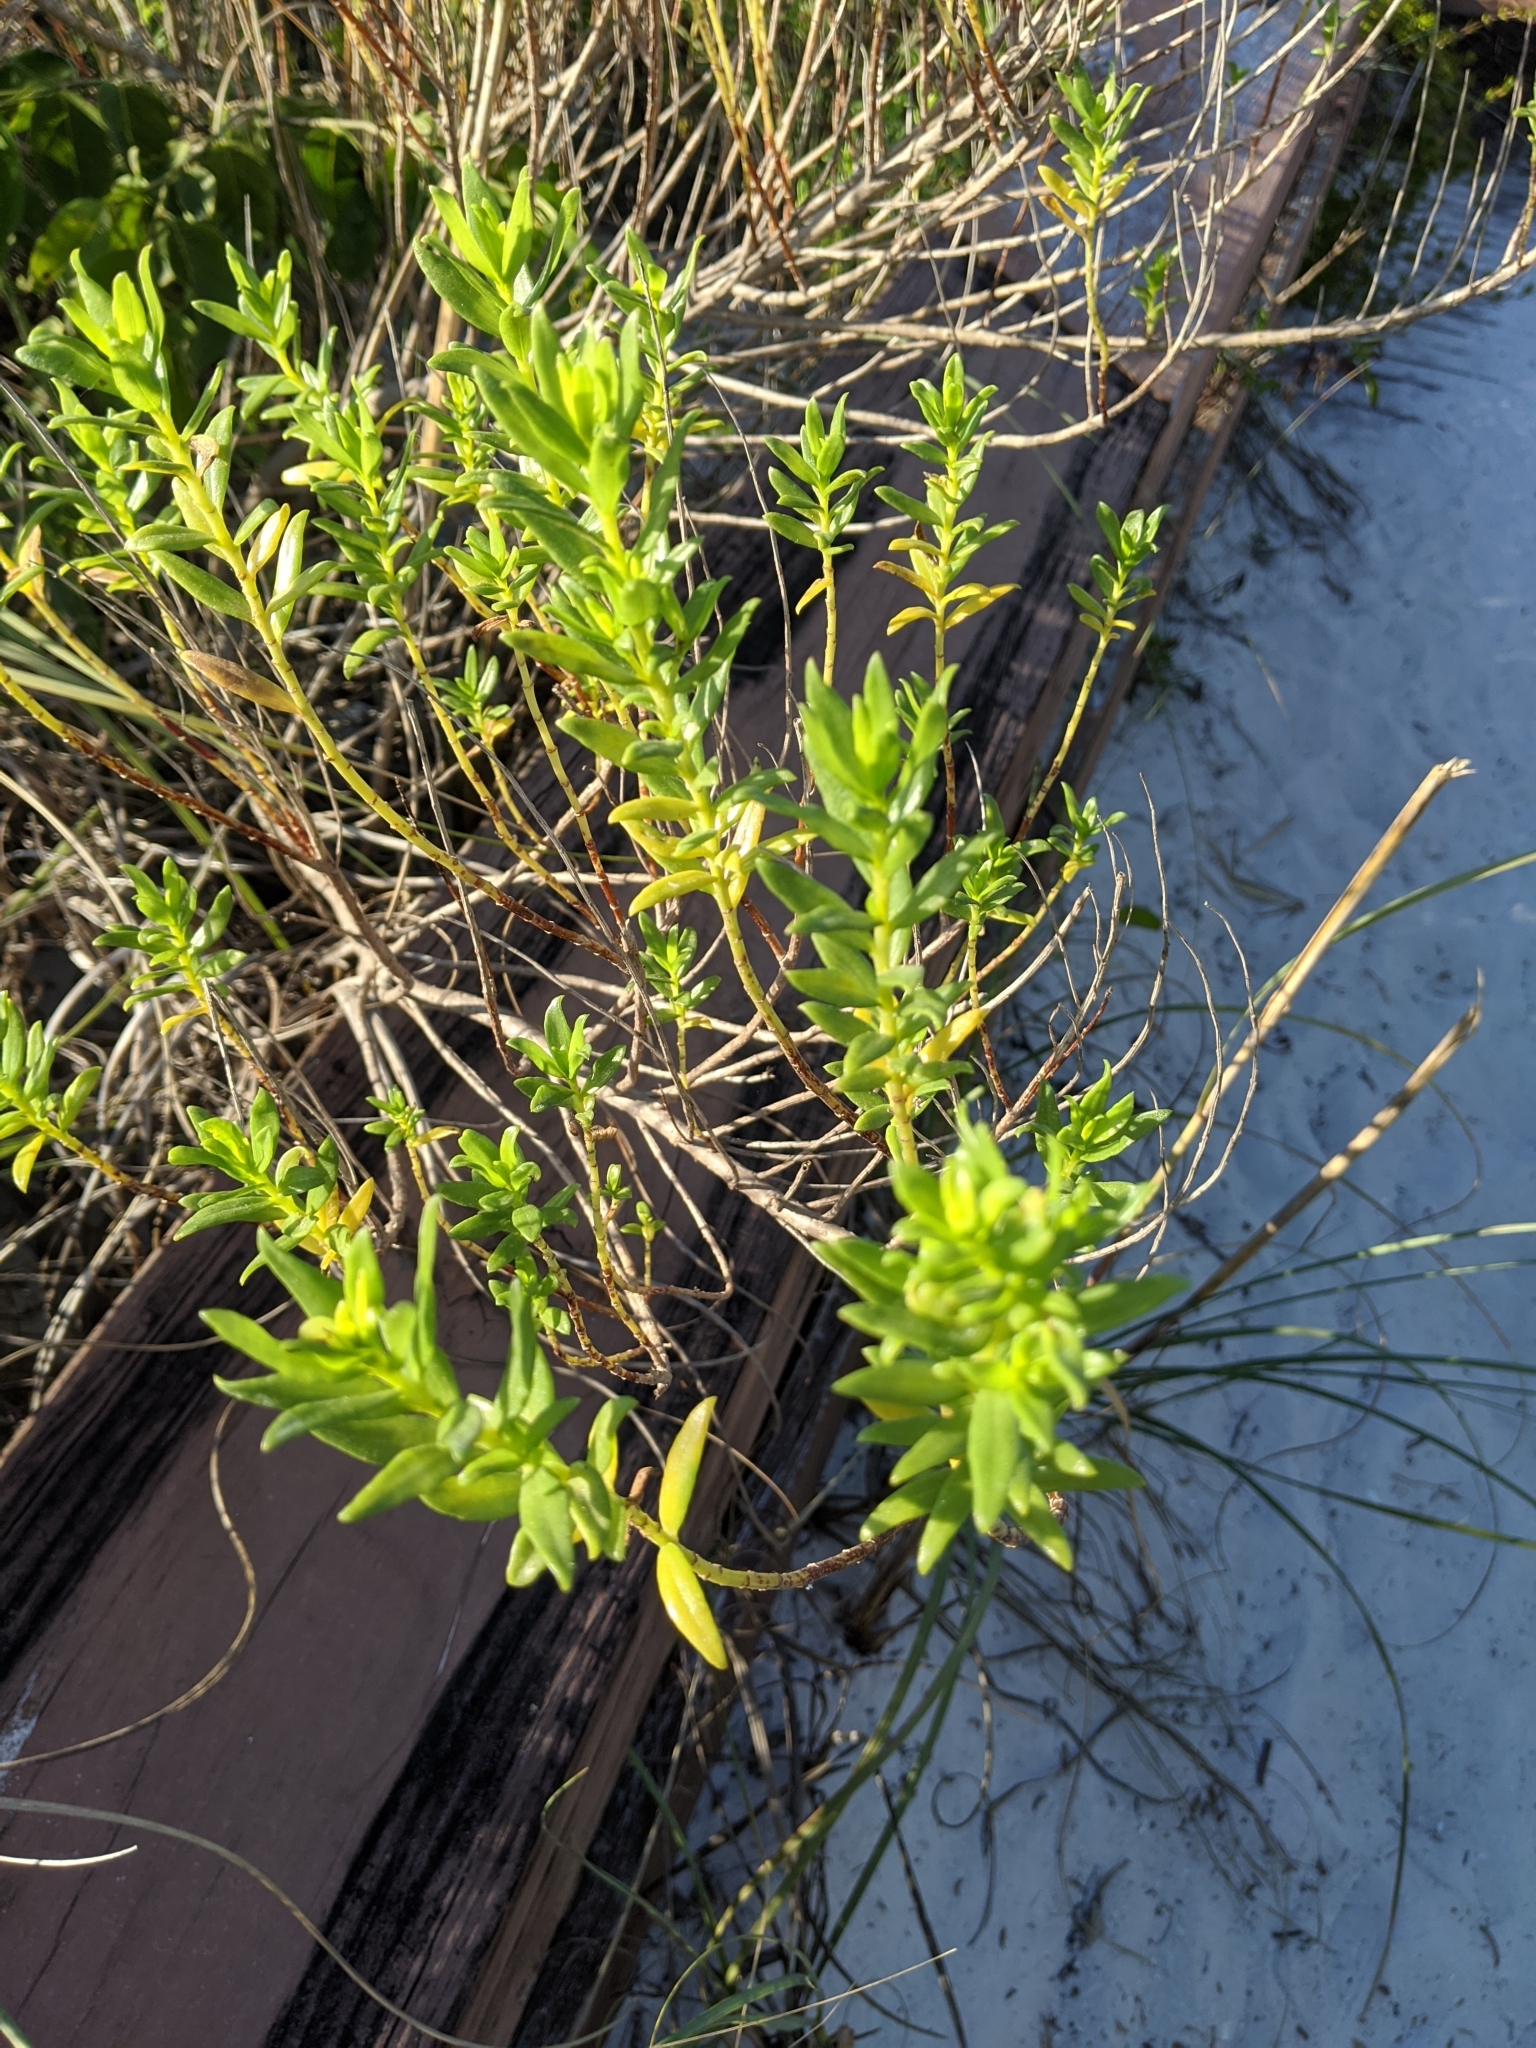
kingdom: Plantae
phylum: Tracheophyta
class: Magnoliopsida
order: Asterales
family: Asteraceae
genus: Iva
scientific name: Iva imbricata
